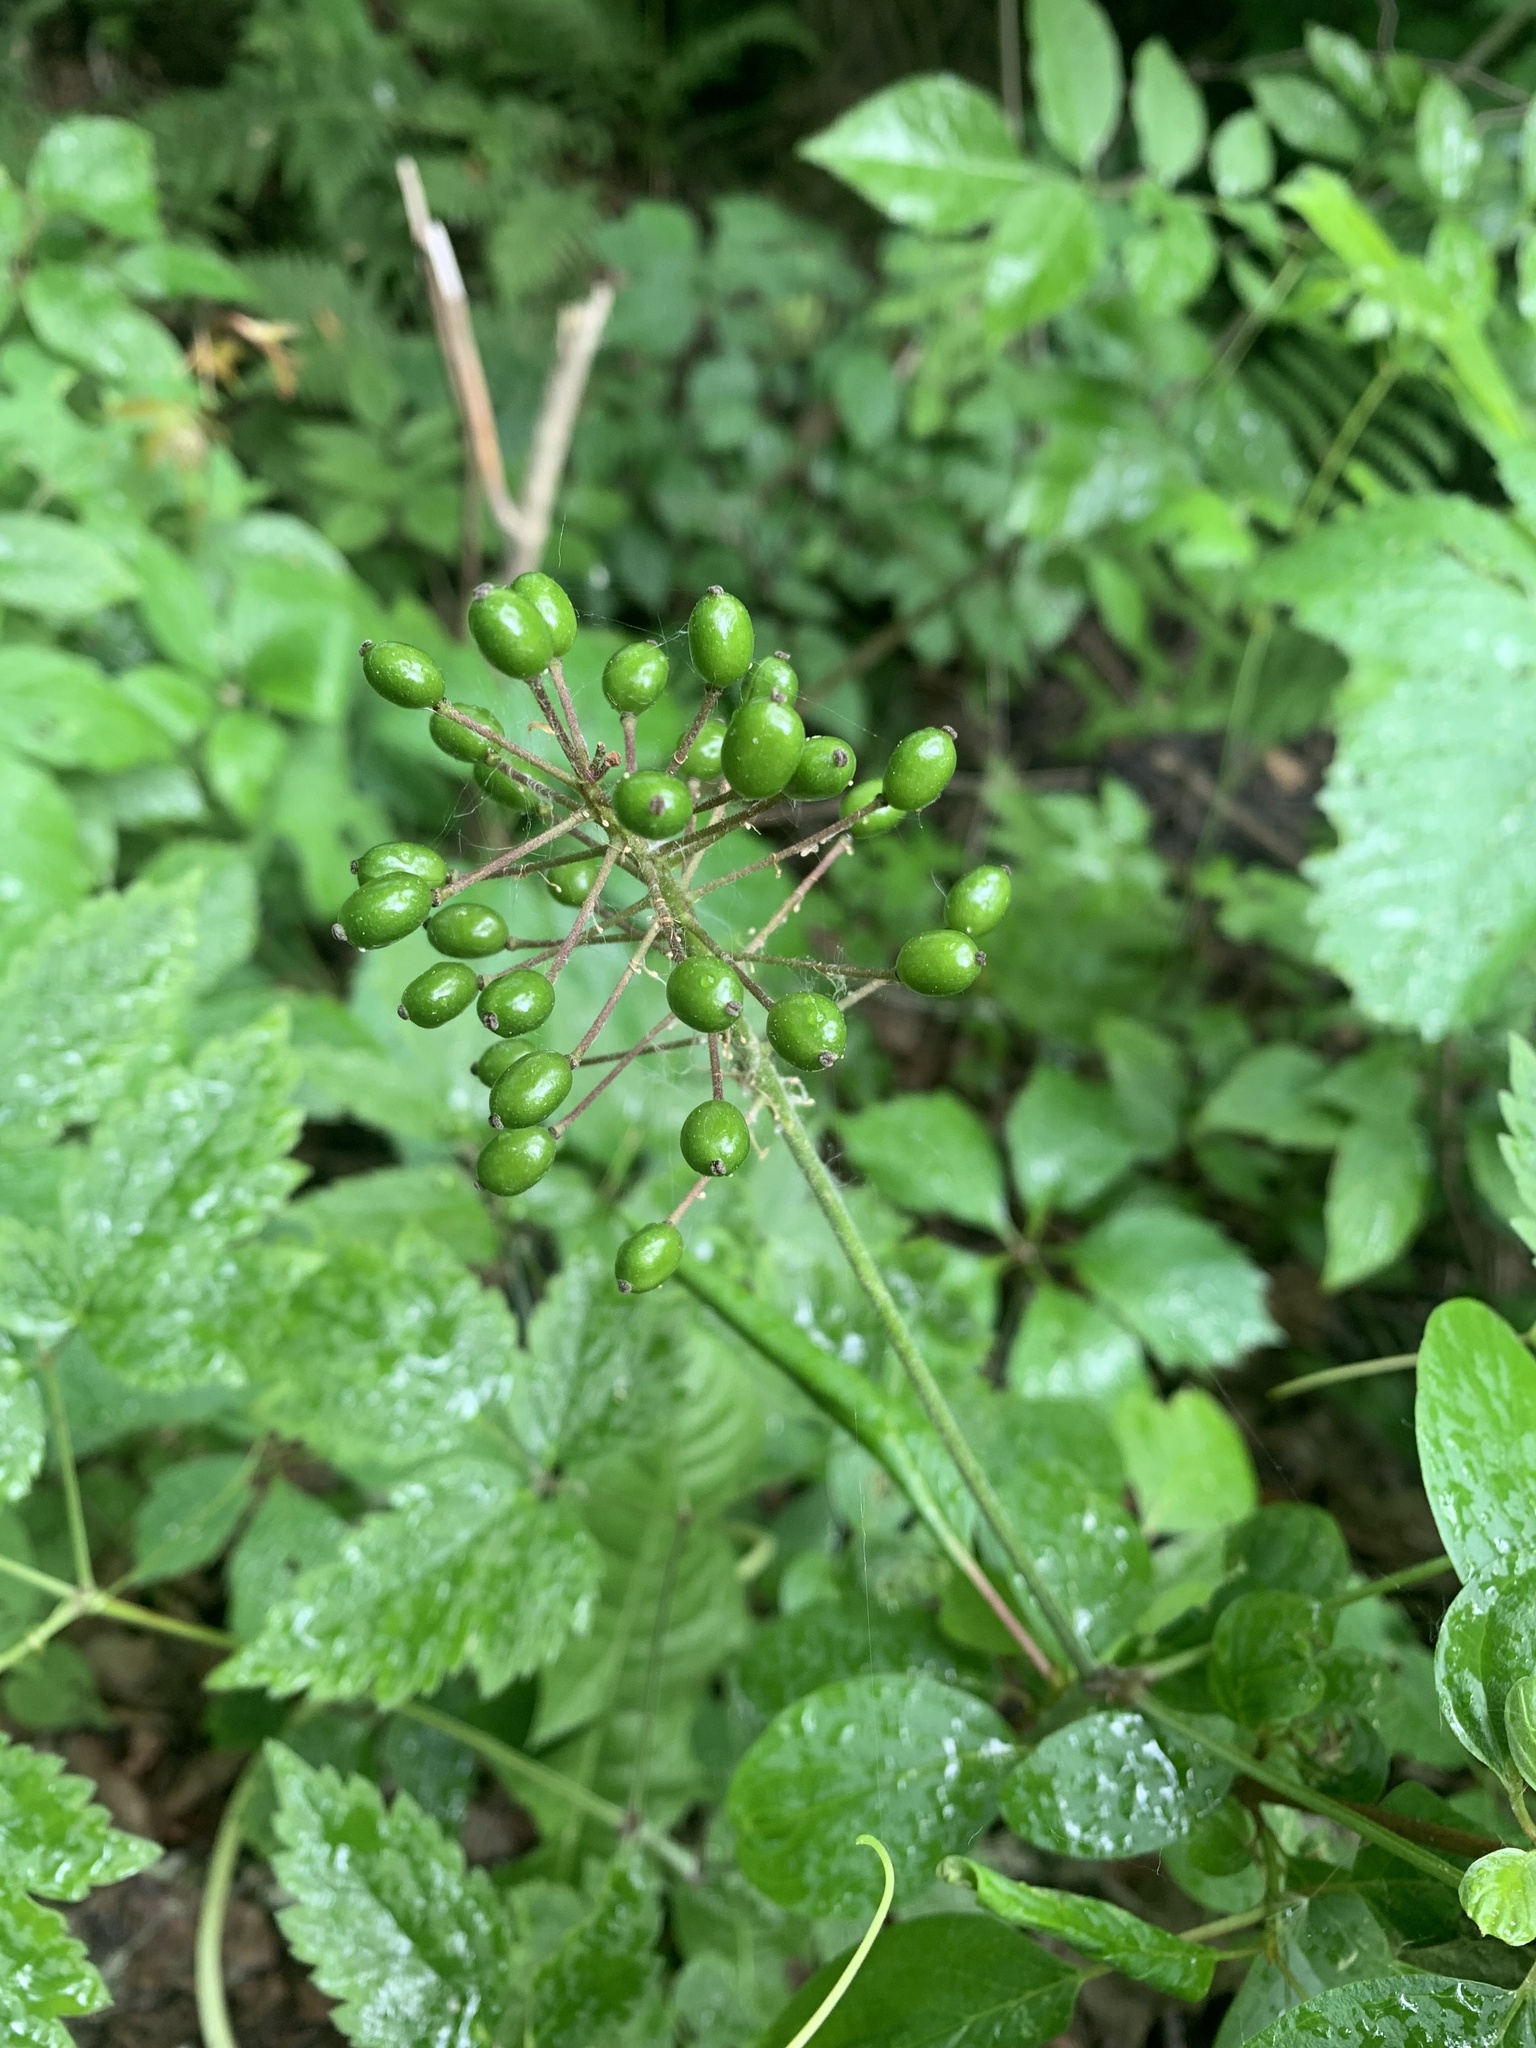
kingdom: Plantae
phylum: Tracheophyta
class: Magnoliopsida
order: Ranunculales
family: Ranunculaceae
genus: Actaea
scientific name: Actaea rubra
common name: Red baneberry
